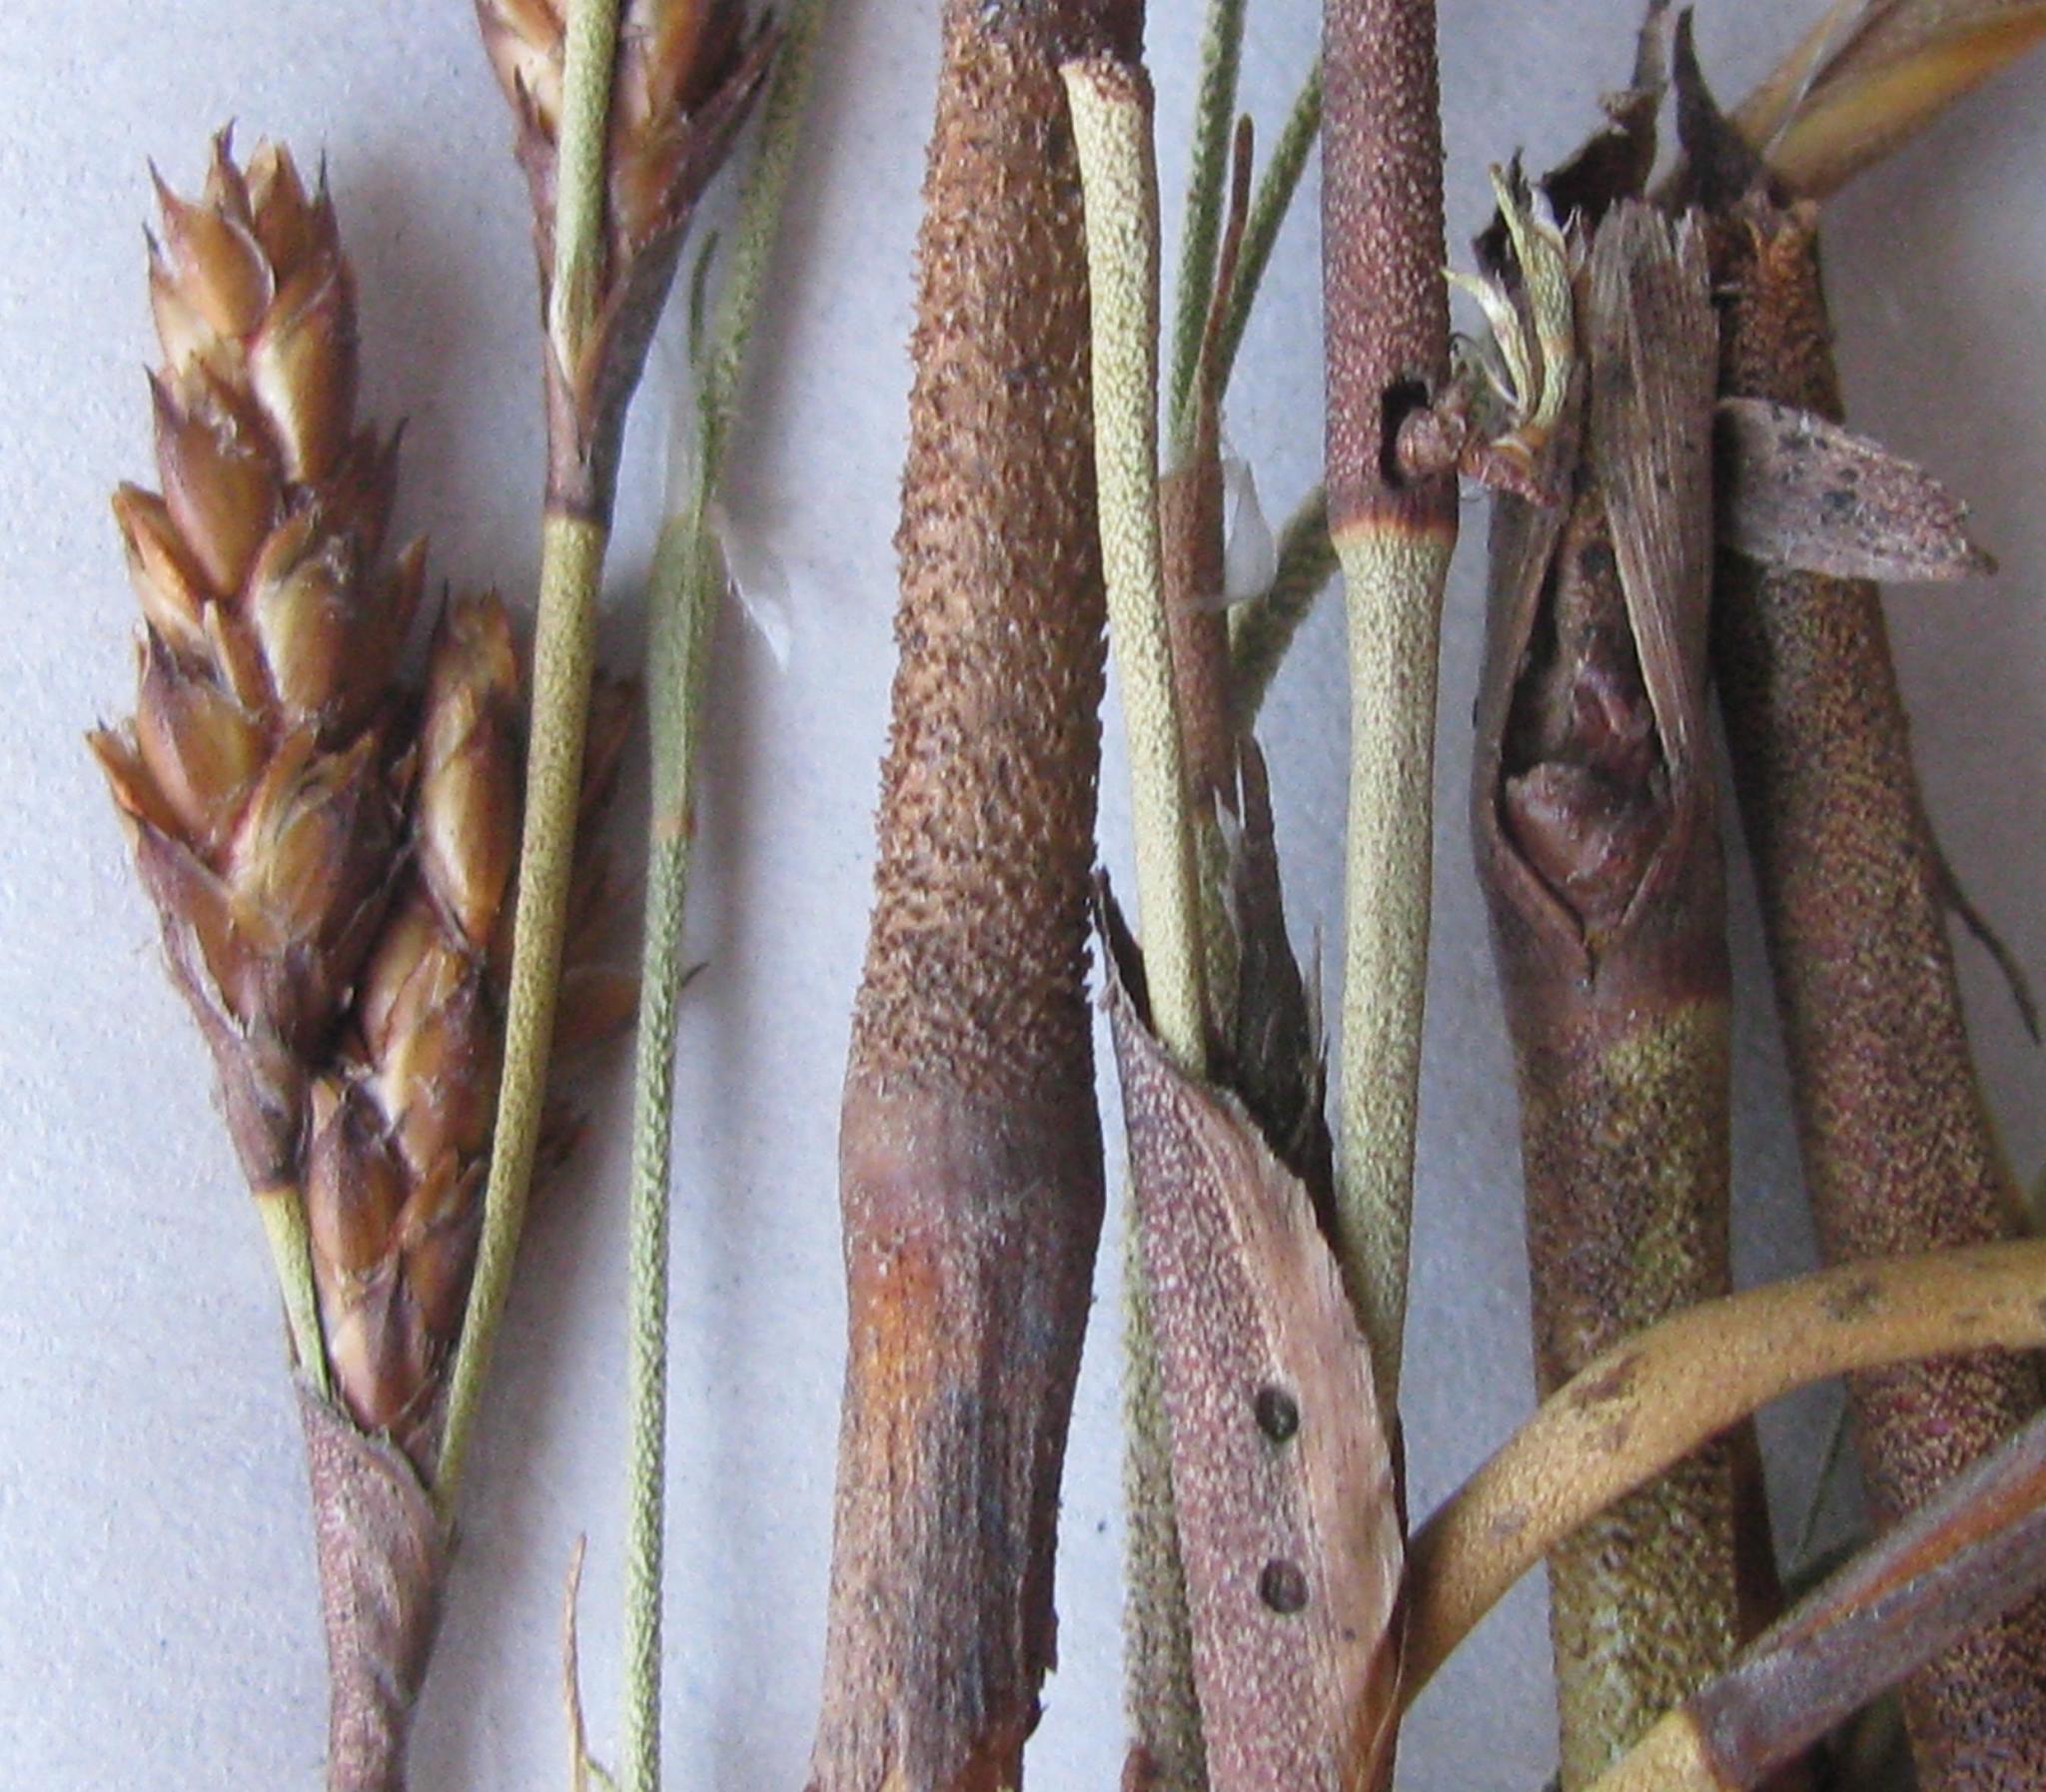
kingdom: Plantae
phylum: Tracheophyta
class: Liliopsida
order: Poales
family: Restionaceae
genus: Restio
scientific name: Restio multiflorus
